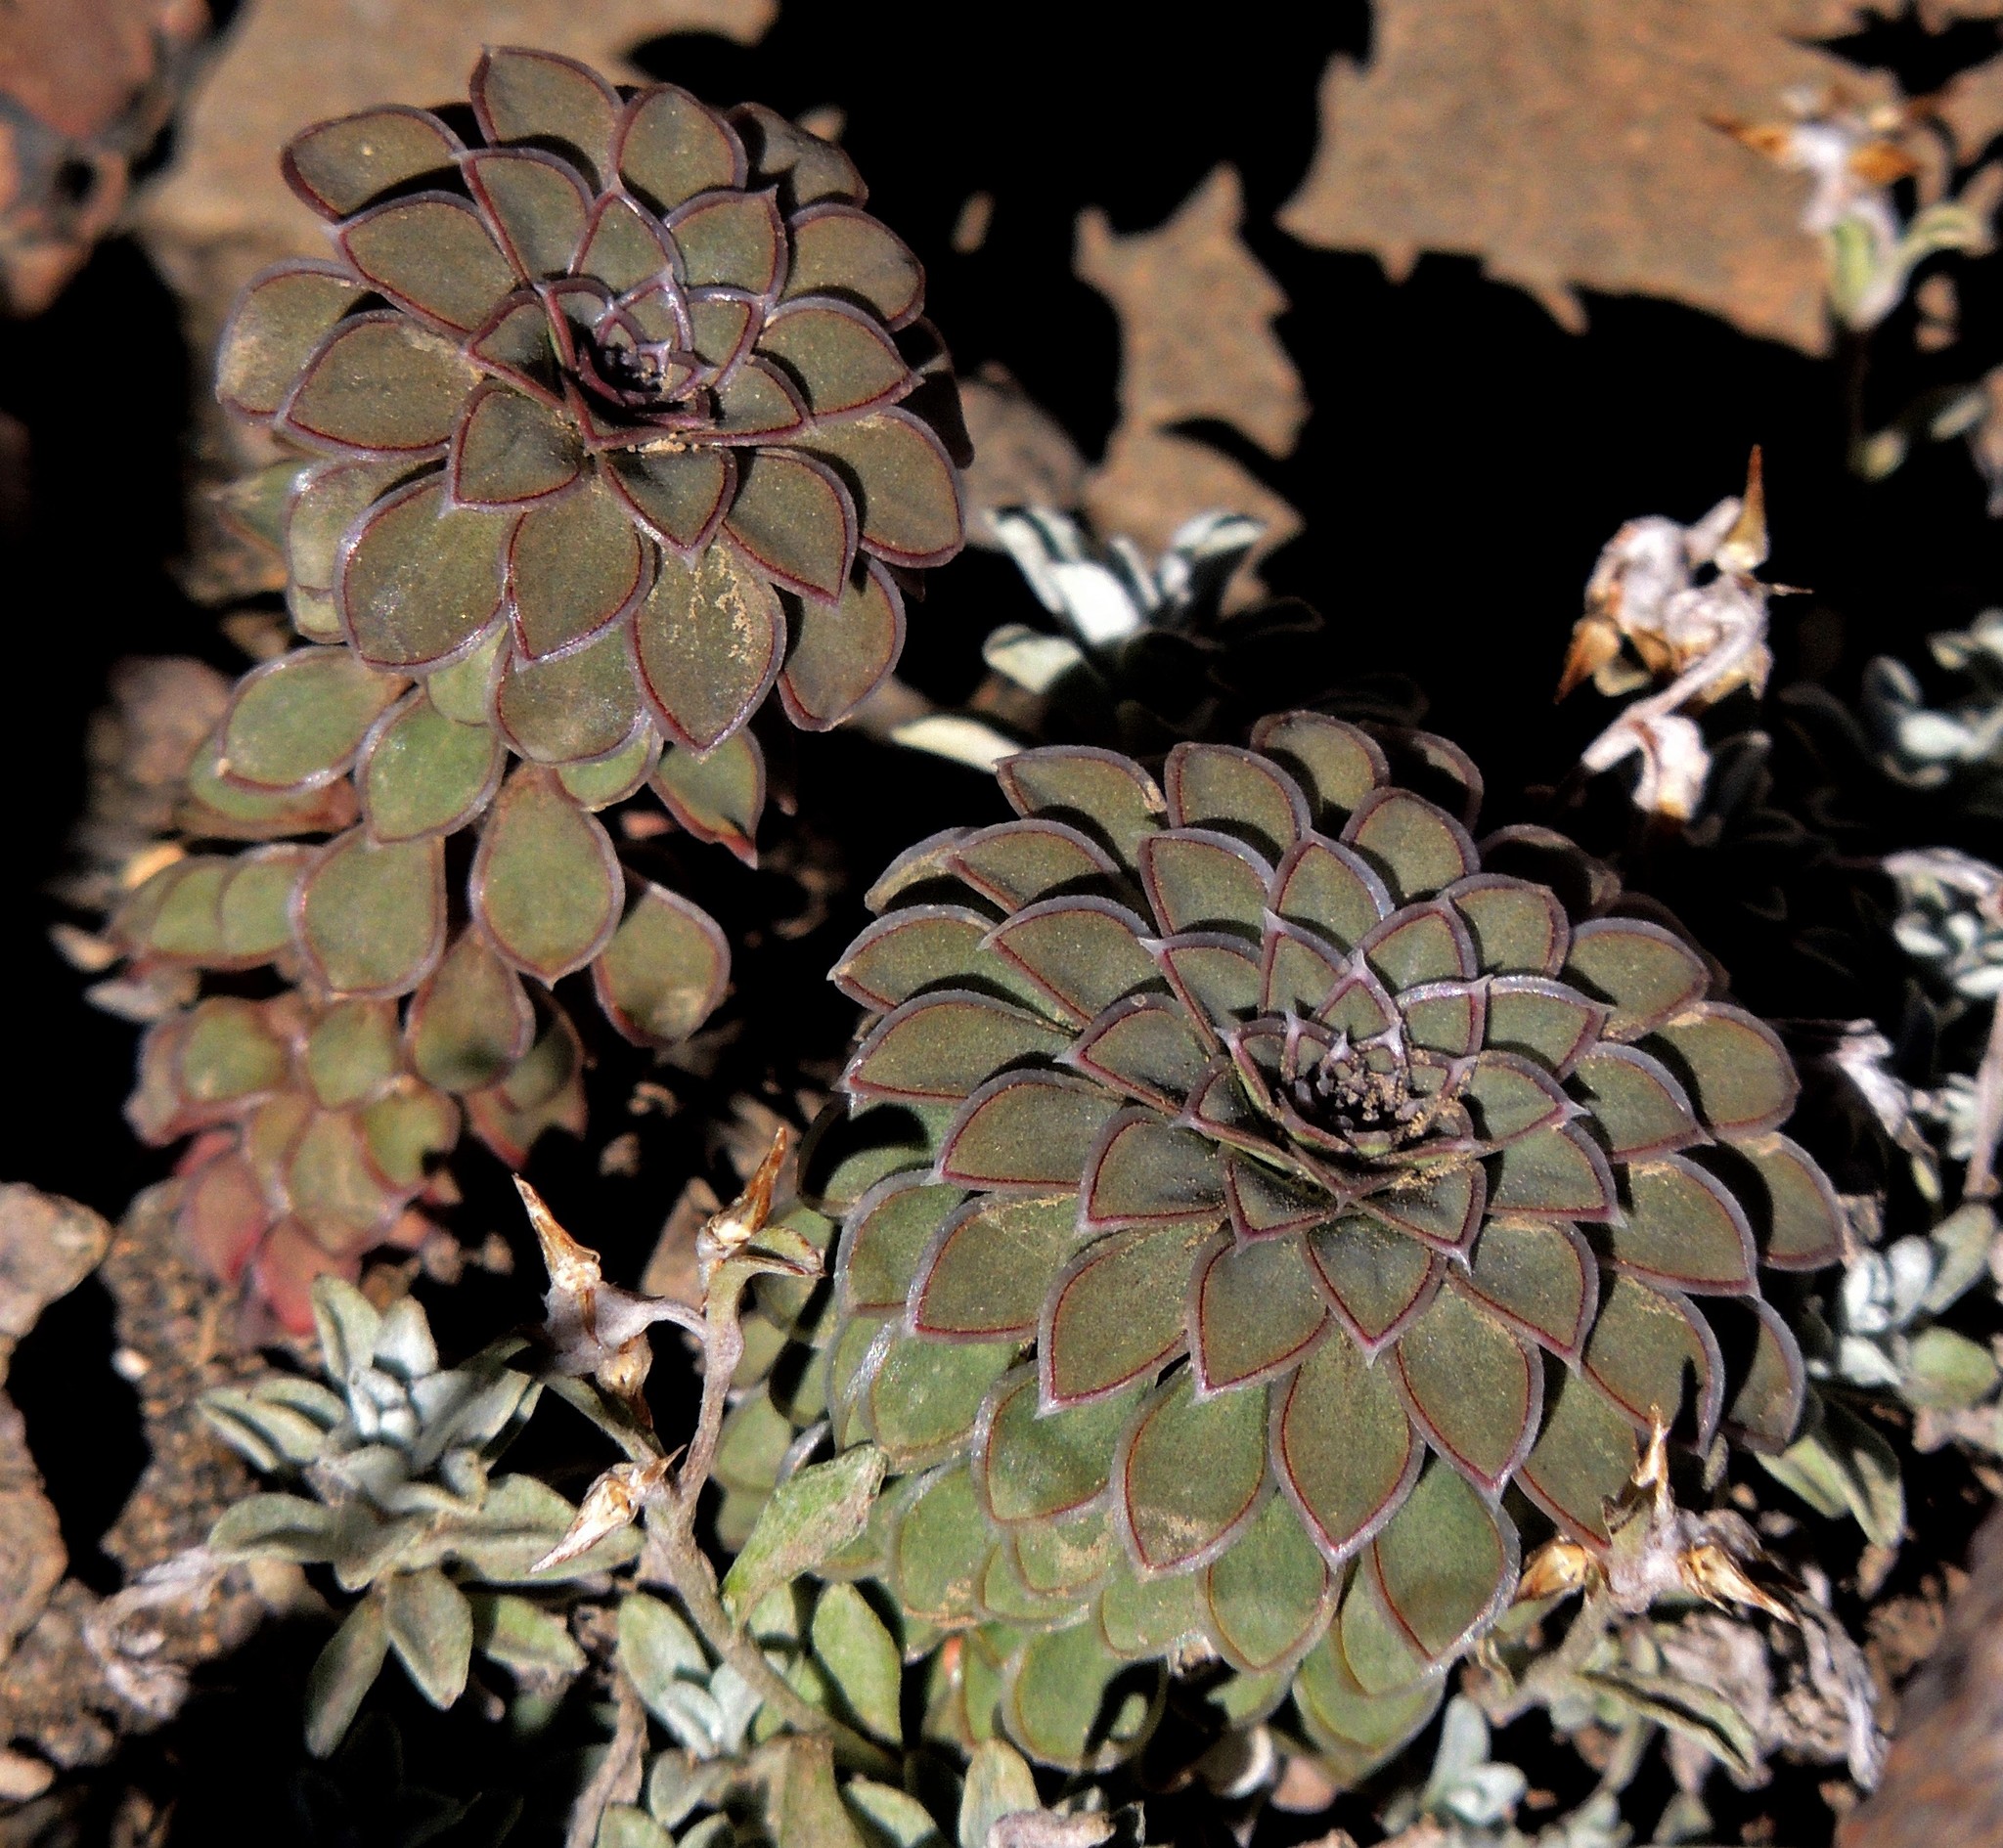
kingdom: Plantae
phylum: Tracheophyta
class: Magnoliopsida
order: Malpighiales
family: Violaceae
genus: Viola
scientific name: Viola blaxlandiae
